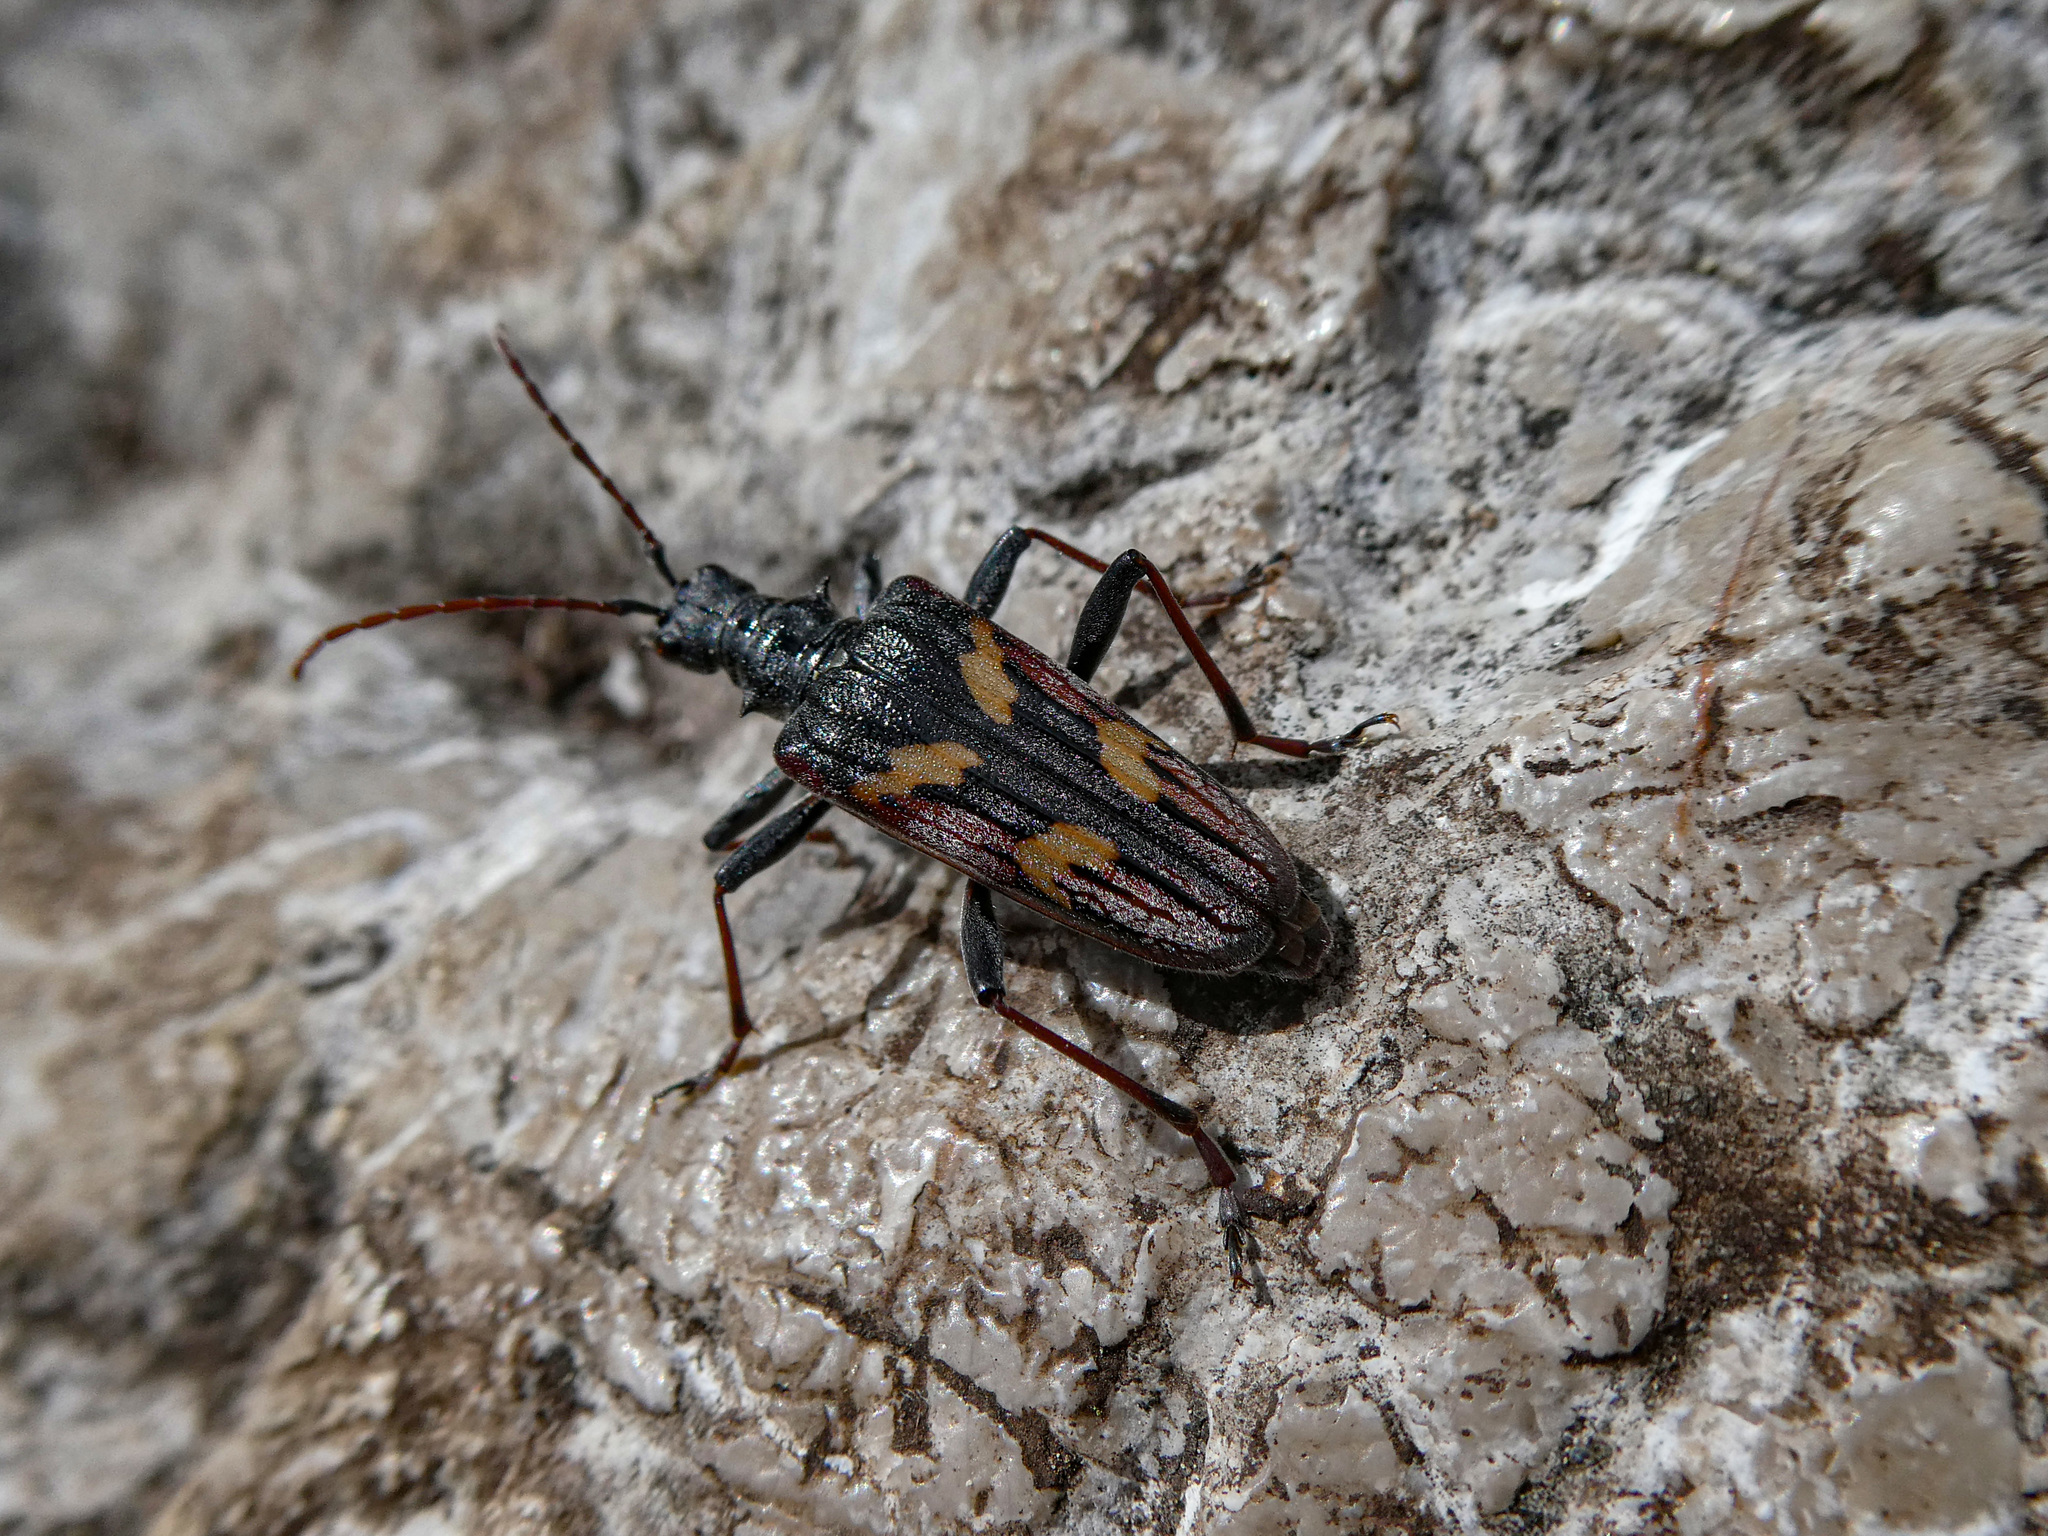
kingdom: Animalia
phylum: Arthropoda
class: Insecta
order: Coleoptera
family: Cerambycidae
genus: Rhagium
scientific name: Rhagium bifasciatum
